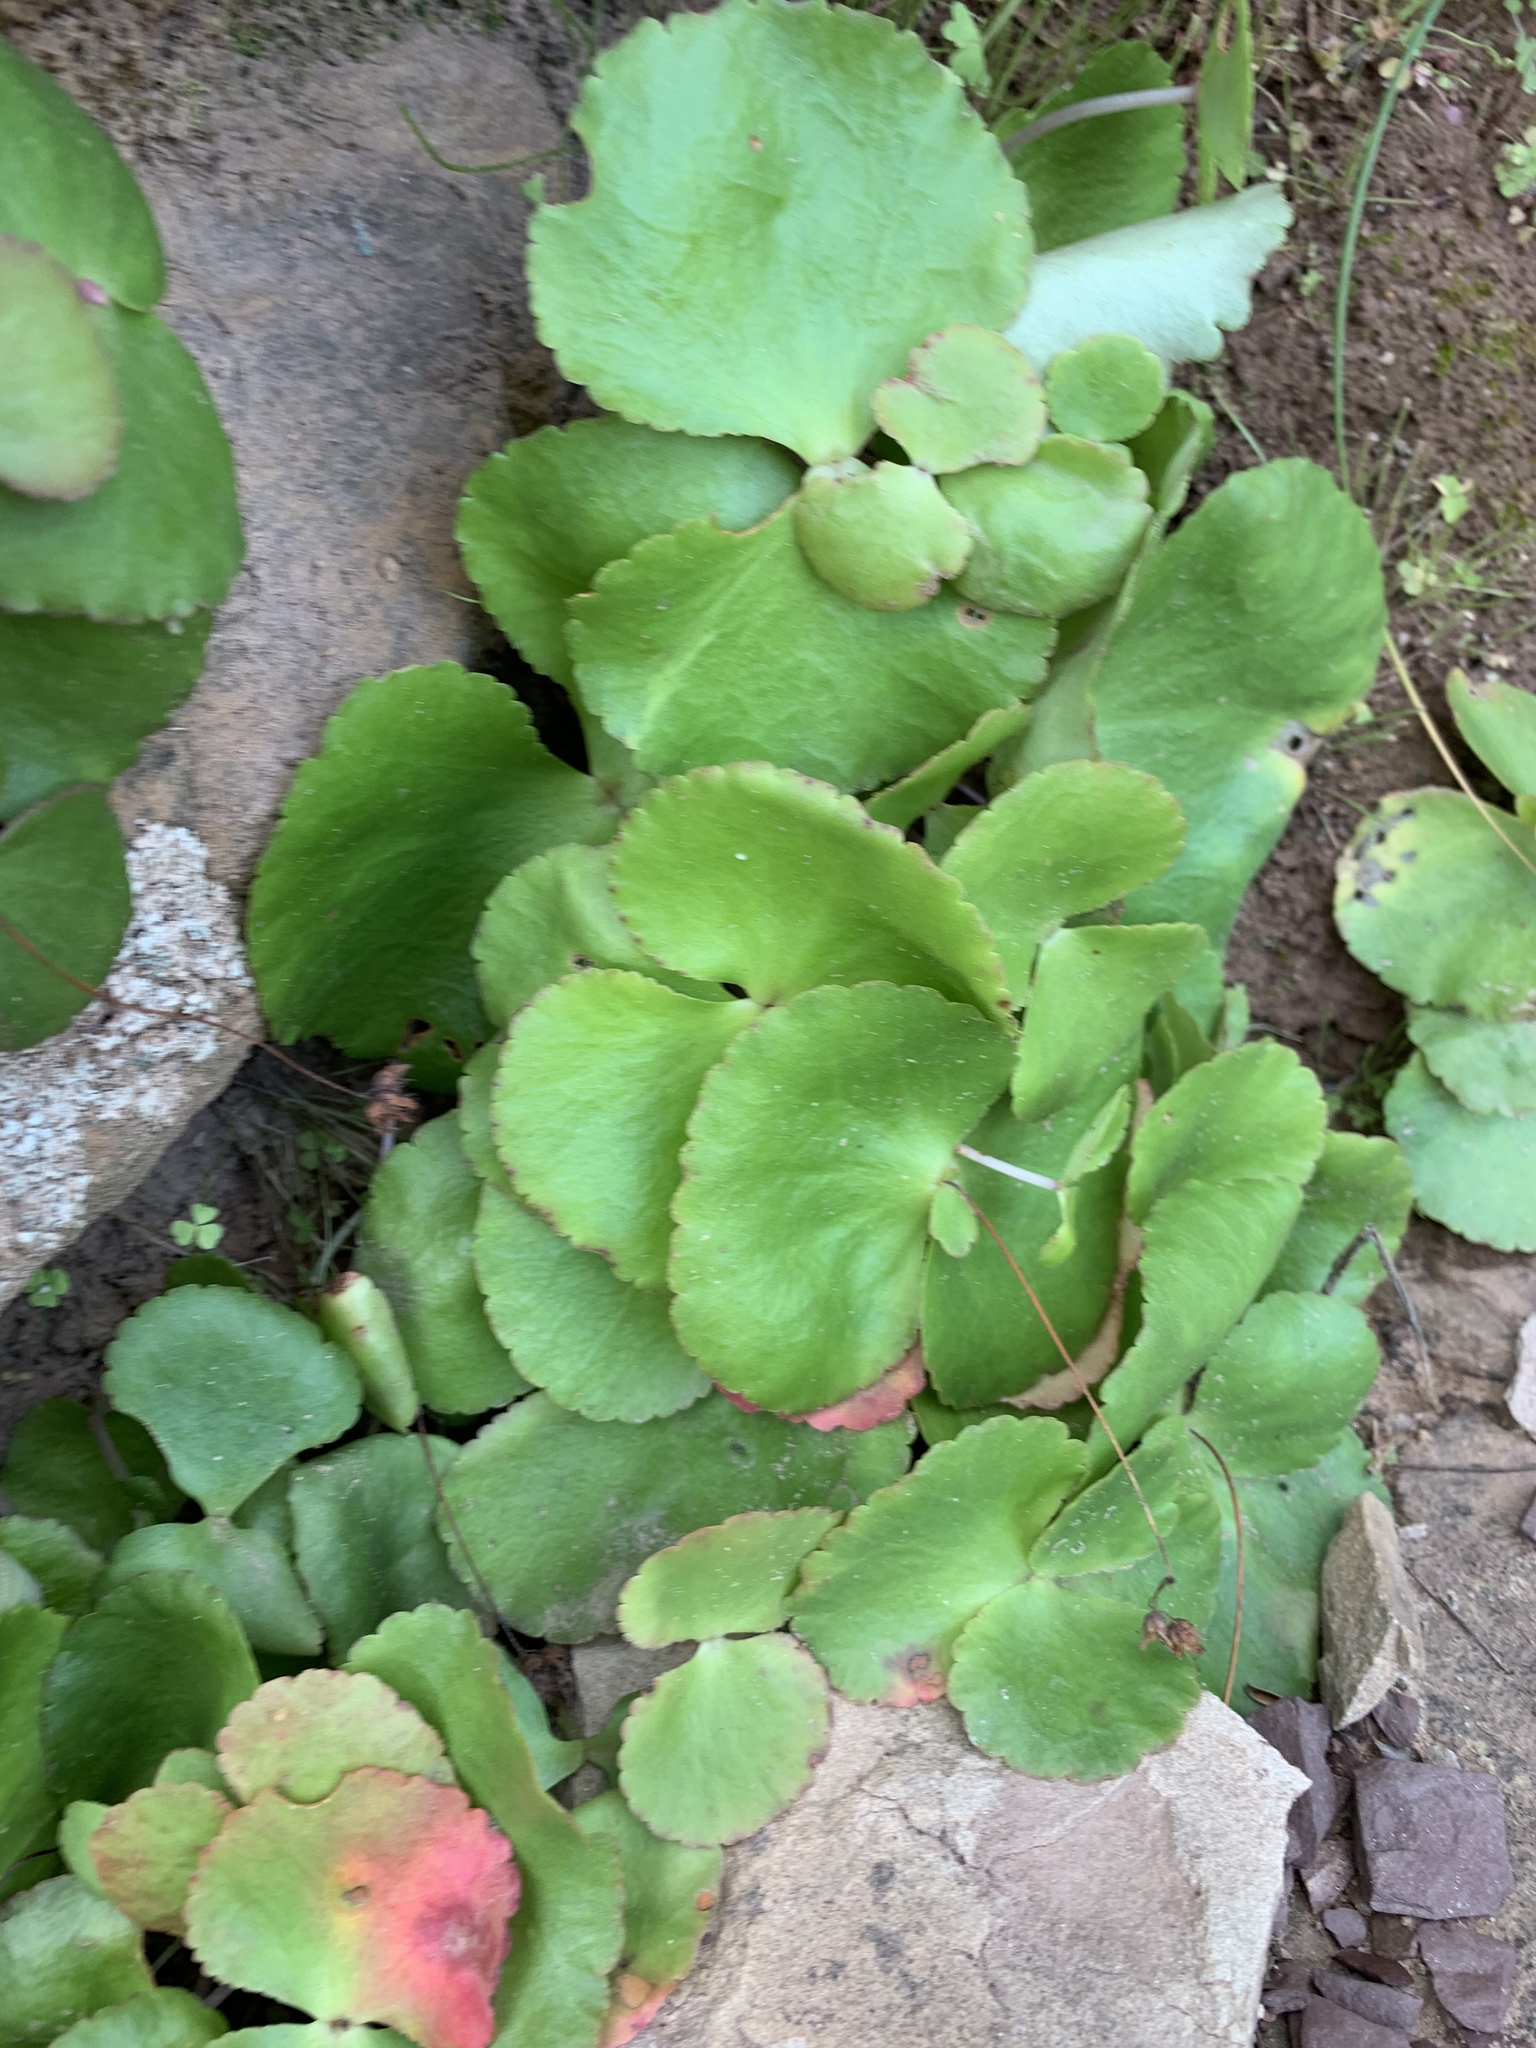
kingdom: Plantae
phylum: Tracheophyta
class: Magnoliopsida
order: Saxifragales
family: Crassulaceae
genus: Crassula
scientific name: Crassula capensis
